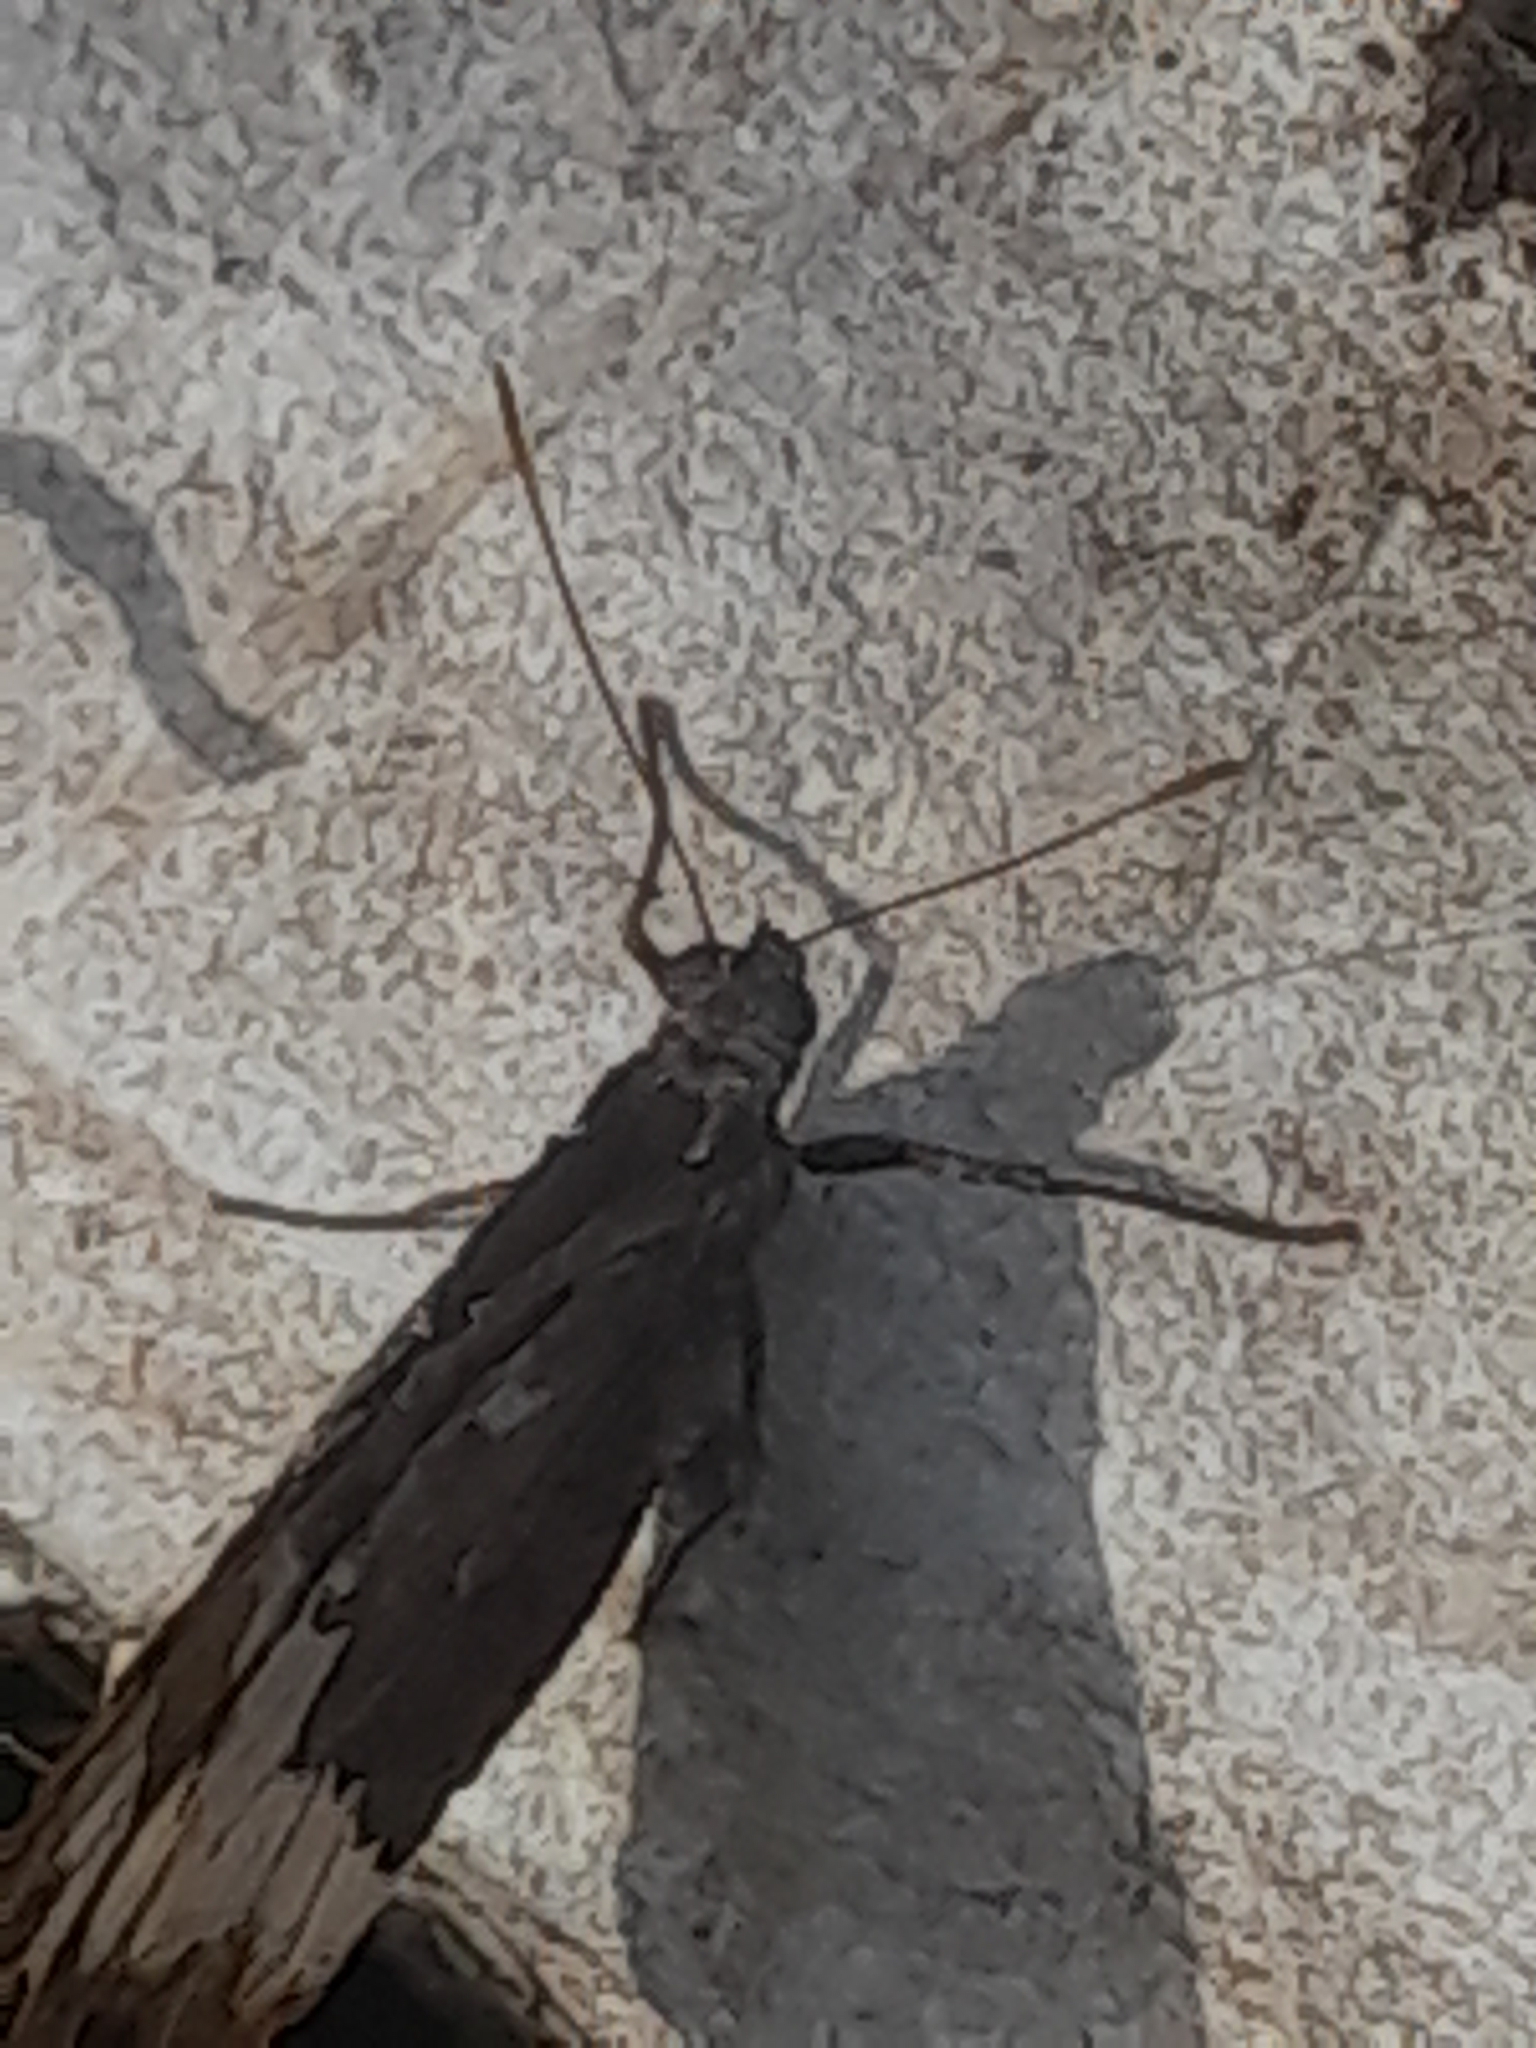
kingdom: Animalia
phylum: Arthropoda
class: Insecta
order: Lepidoptera
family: Lycaenidae
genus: Loweia
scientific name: Loweia tityrus
